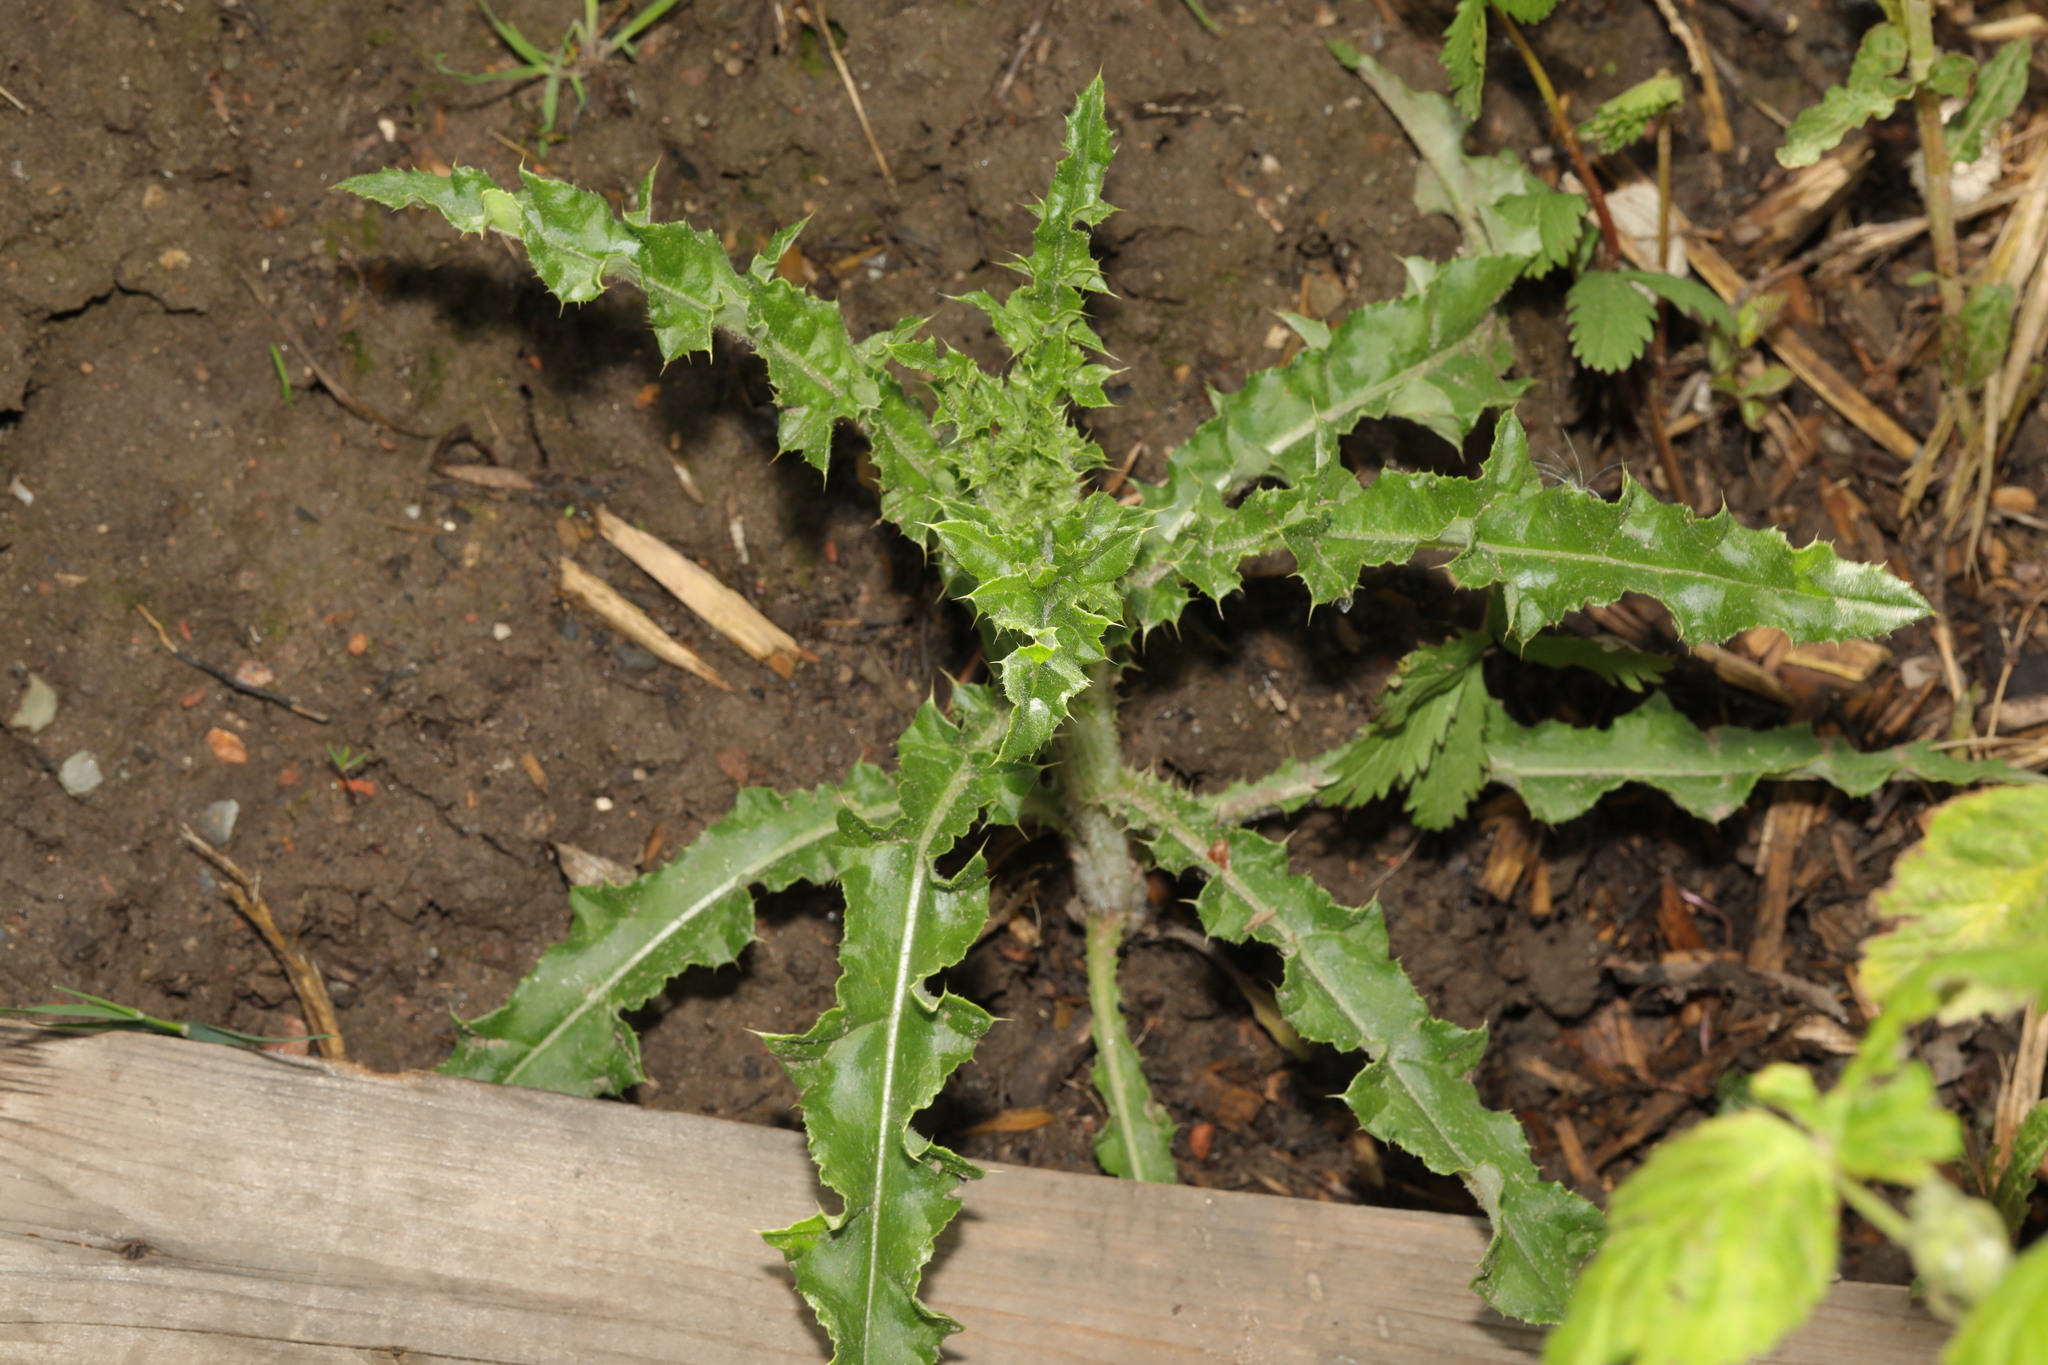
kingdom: Plantae
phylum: Tracheophyta
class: Magnoliopsida
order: Asterales
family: Asteraceae
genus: Cirsium
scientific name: Cirsium arvense
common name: Creeping thistle
